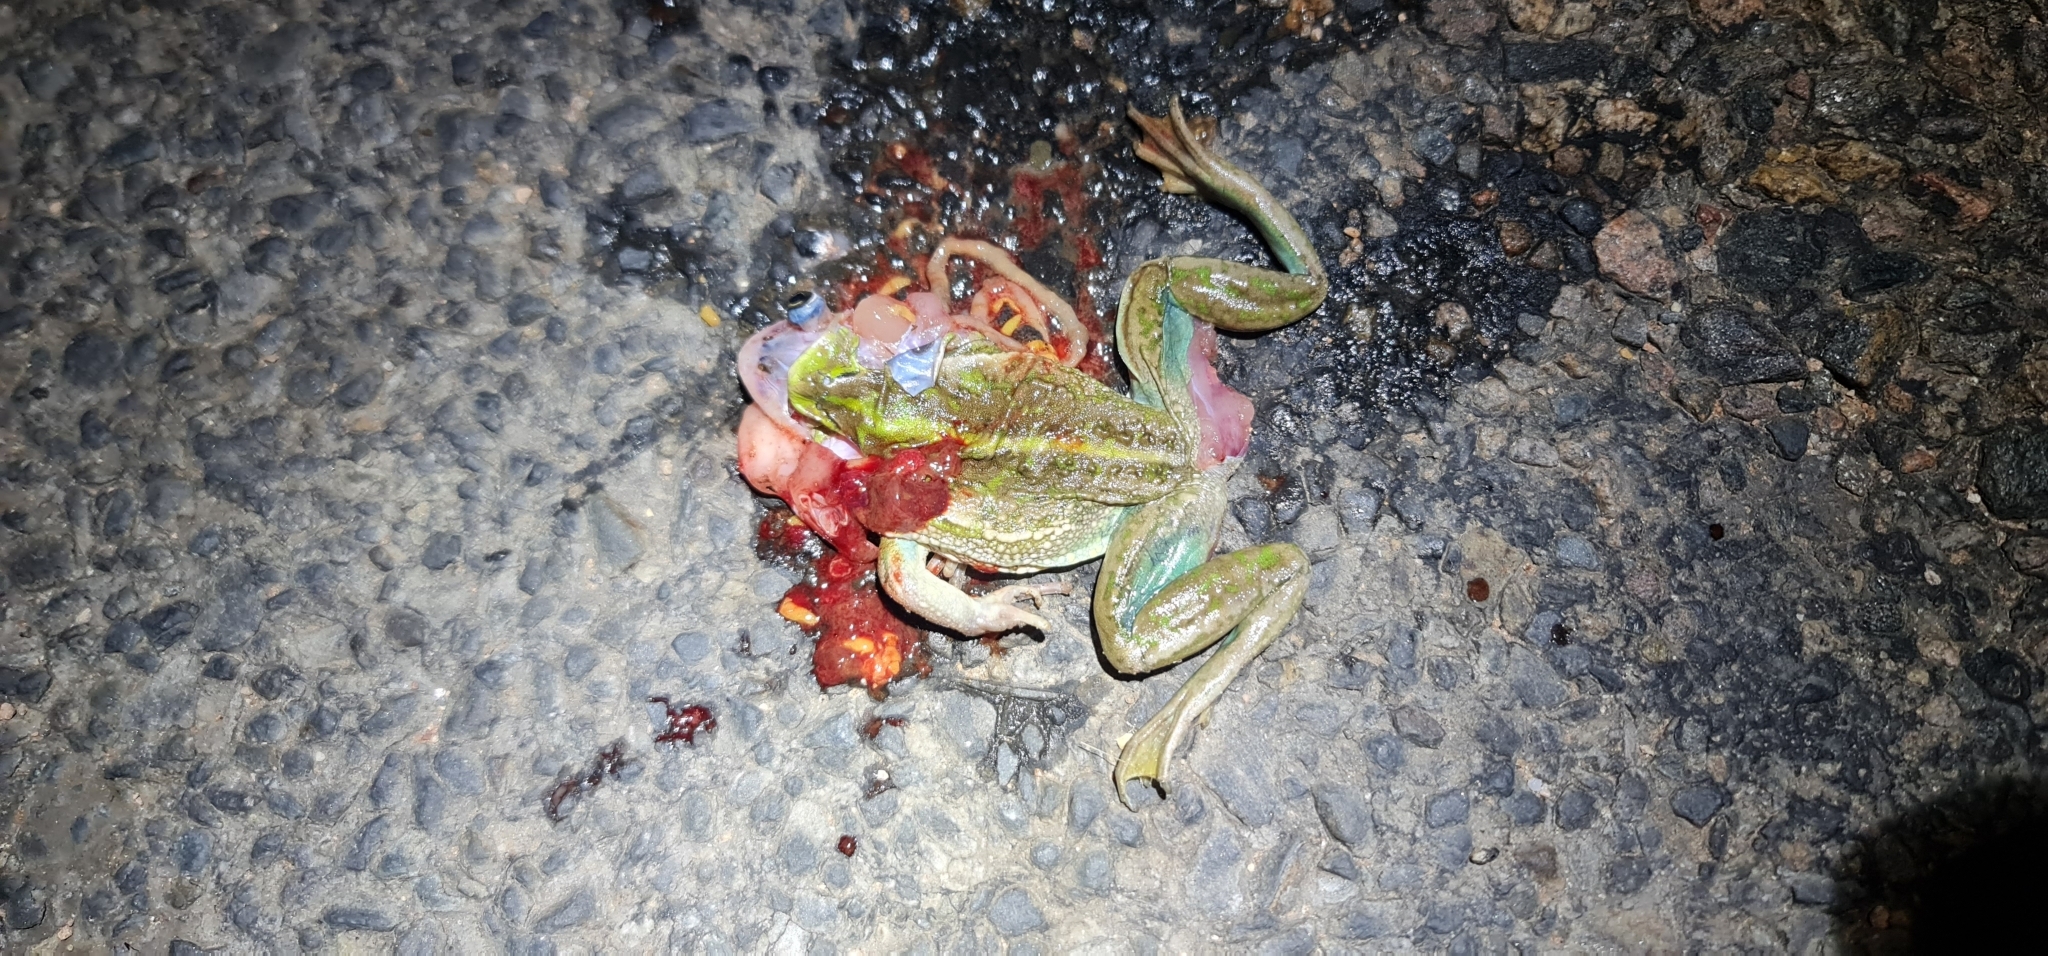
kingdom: Animalia
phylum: Chordata
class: Amphibia
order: Anura
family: Pelodryadidae
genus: Ranoidea
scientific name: Ranoidea raniformis
